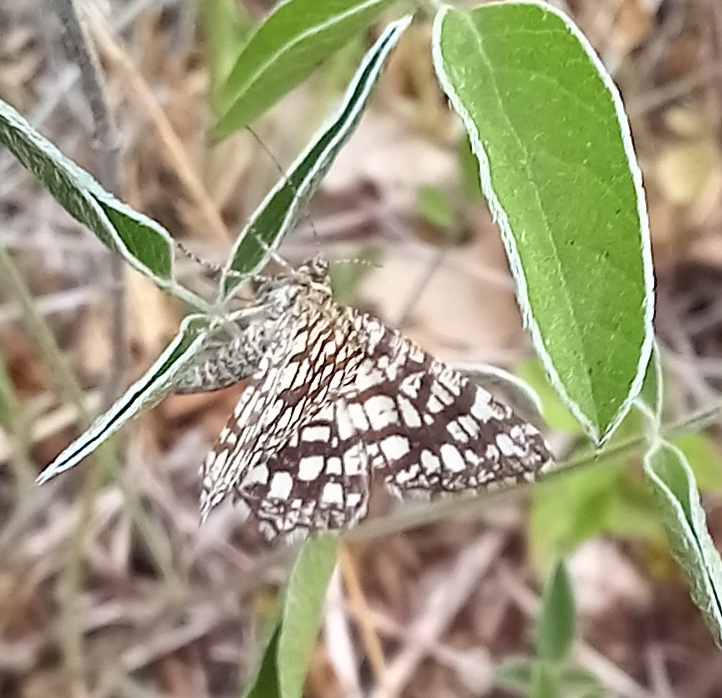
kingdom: Animalia
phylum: Arthropoda
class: Insecta
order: Lepidoptera
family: Geometridae
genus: Chiasmia
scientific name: Chiasmia clathrata
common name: Latticed heath
